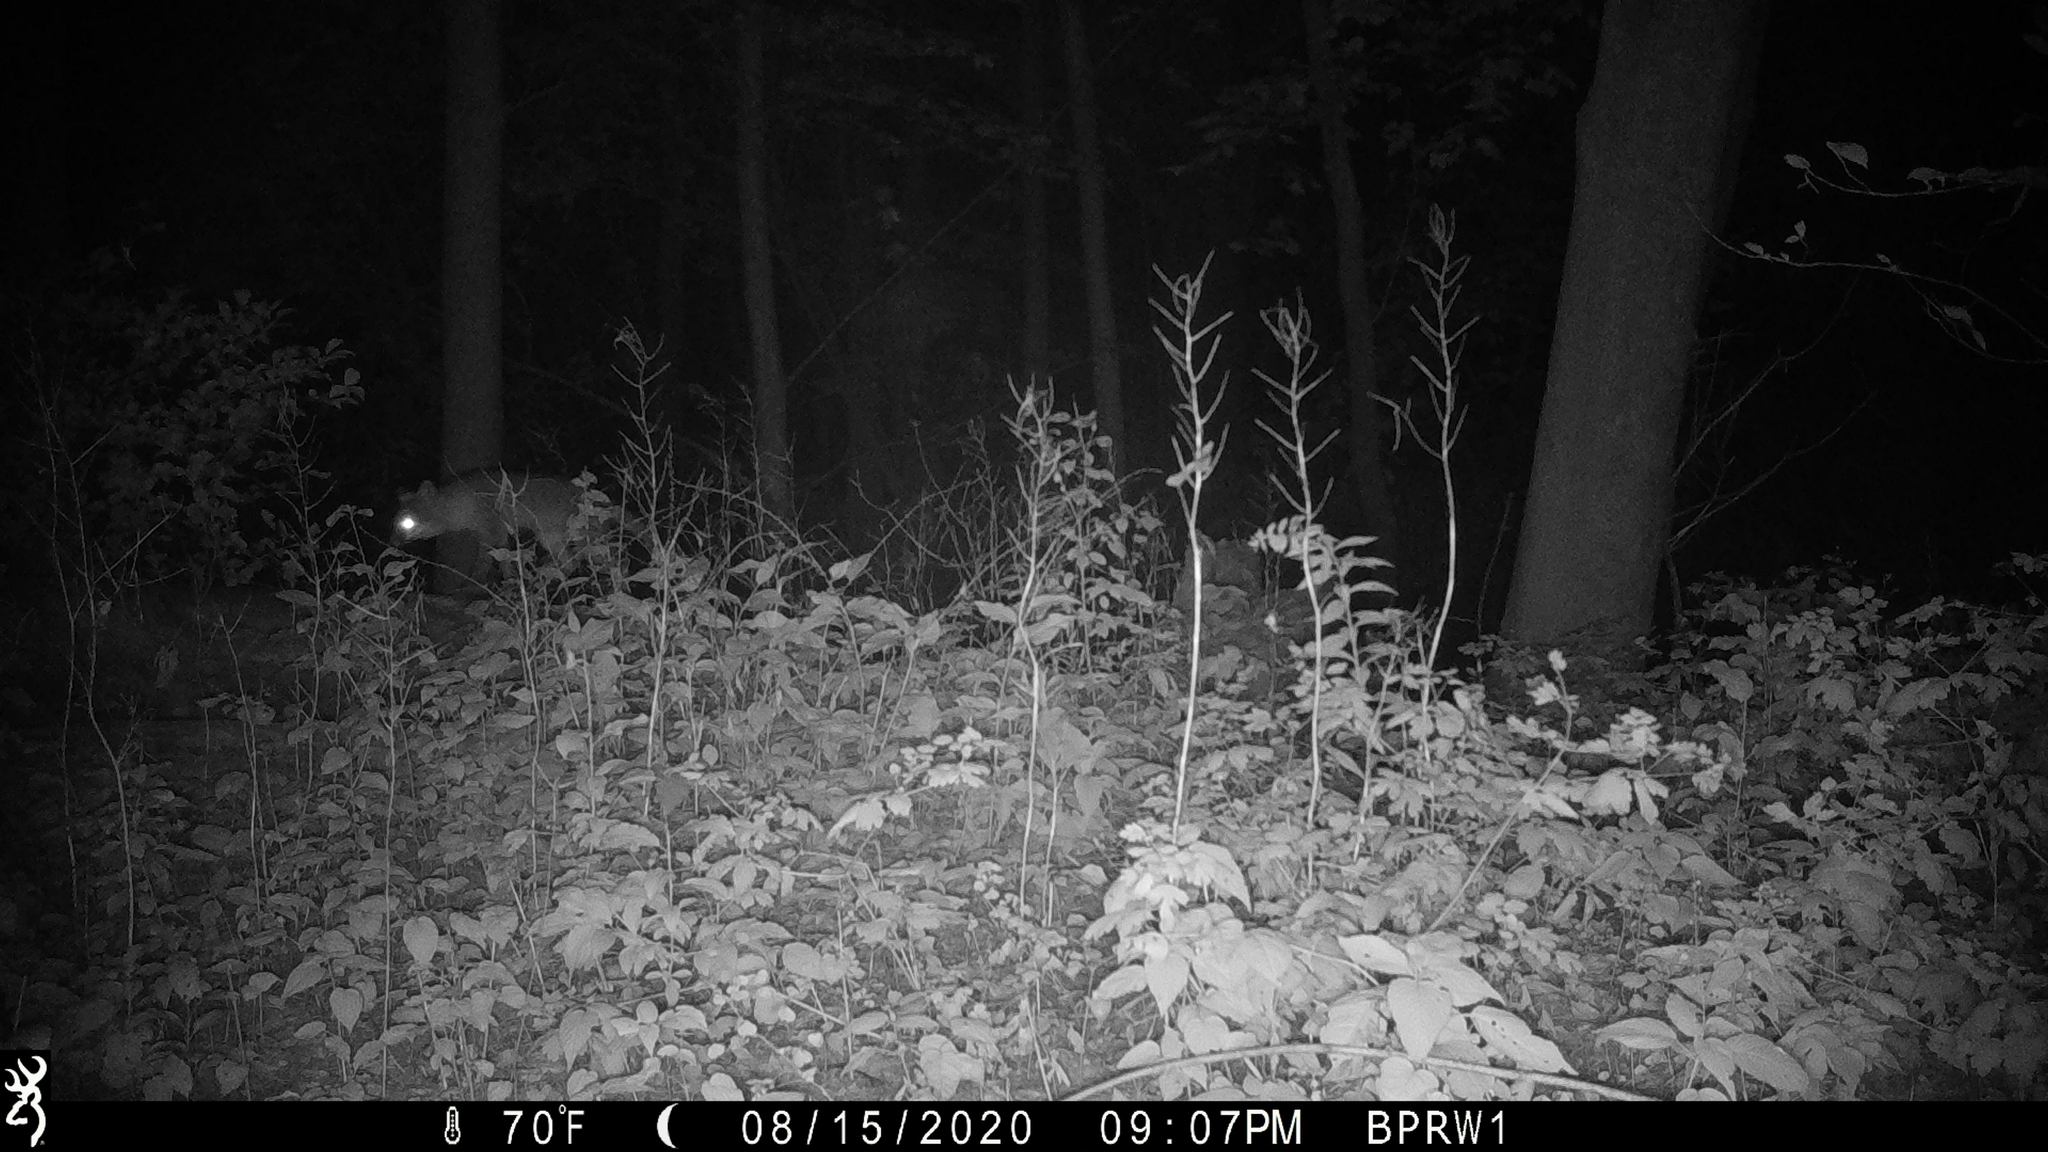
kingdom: Animalia
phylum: Chordata
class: Mammalia
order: Carnivora
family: Canidae
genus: Urocyon
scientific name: Urocyon cinereoargenteus
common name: Gray fox
